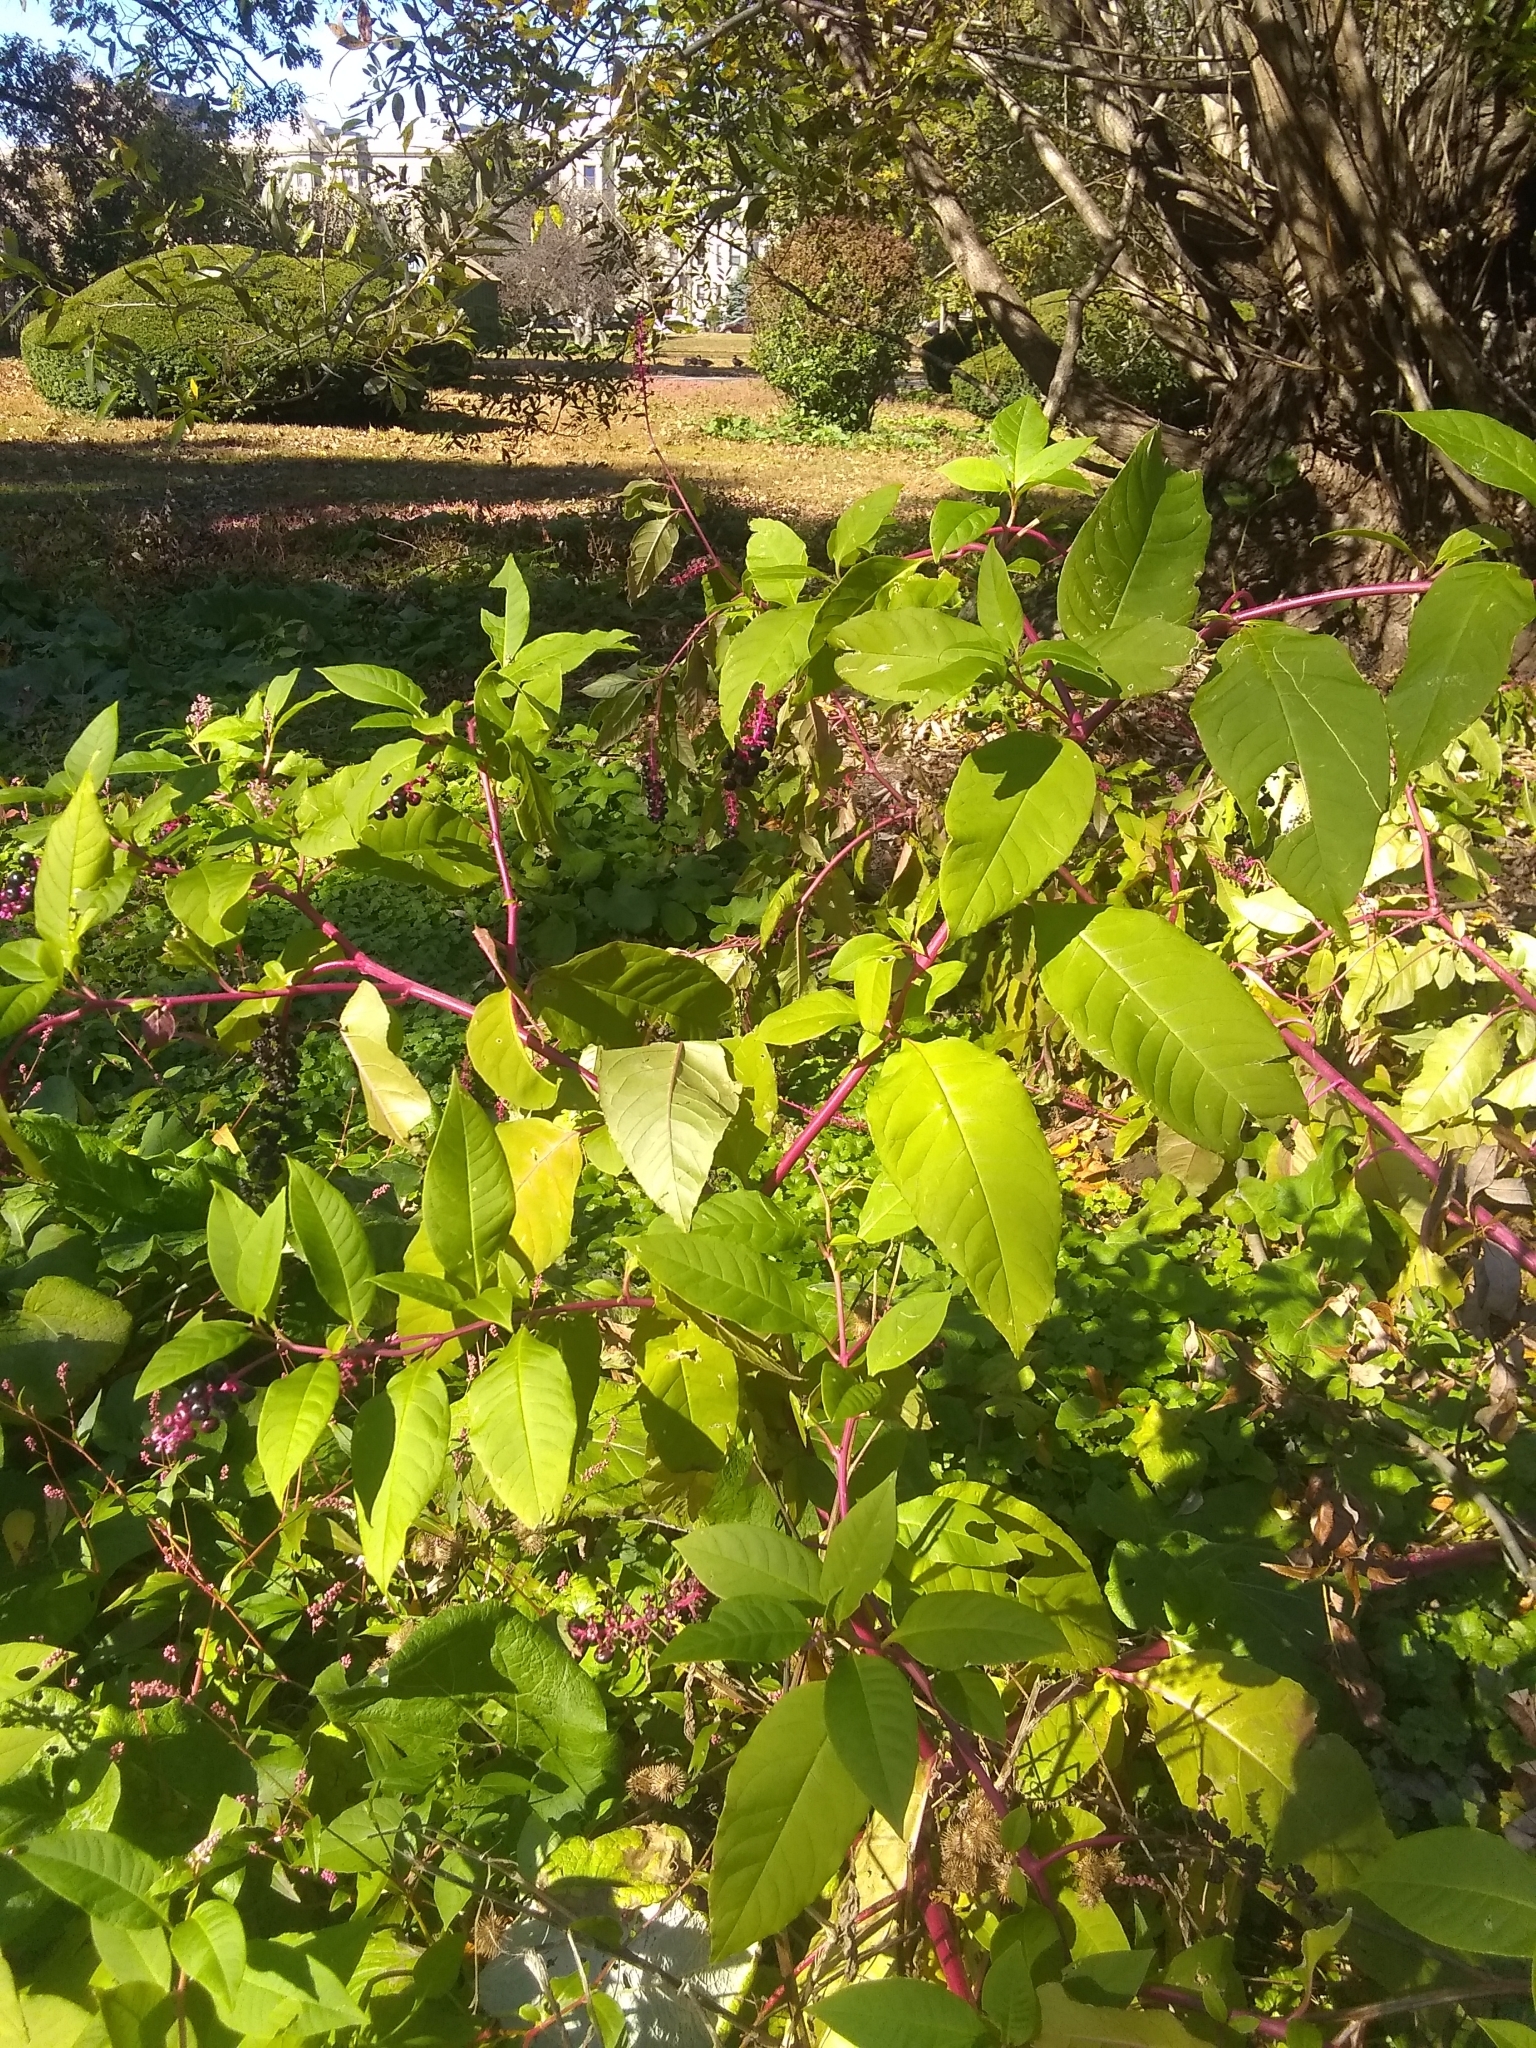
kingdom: Plantae
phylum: Tracheophyta
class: Magnoliopsida
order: Caryophyllales
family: Phytolaccaceae
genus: Phytolacca
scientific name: Phytolacca americana
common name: American pokeweed
